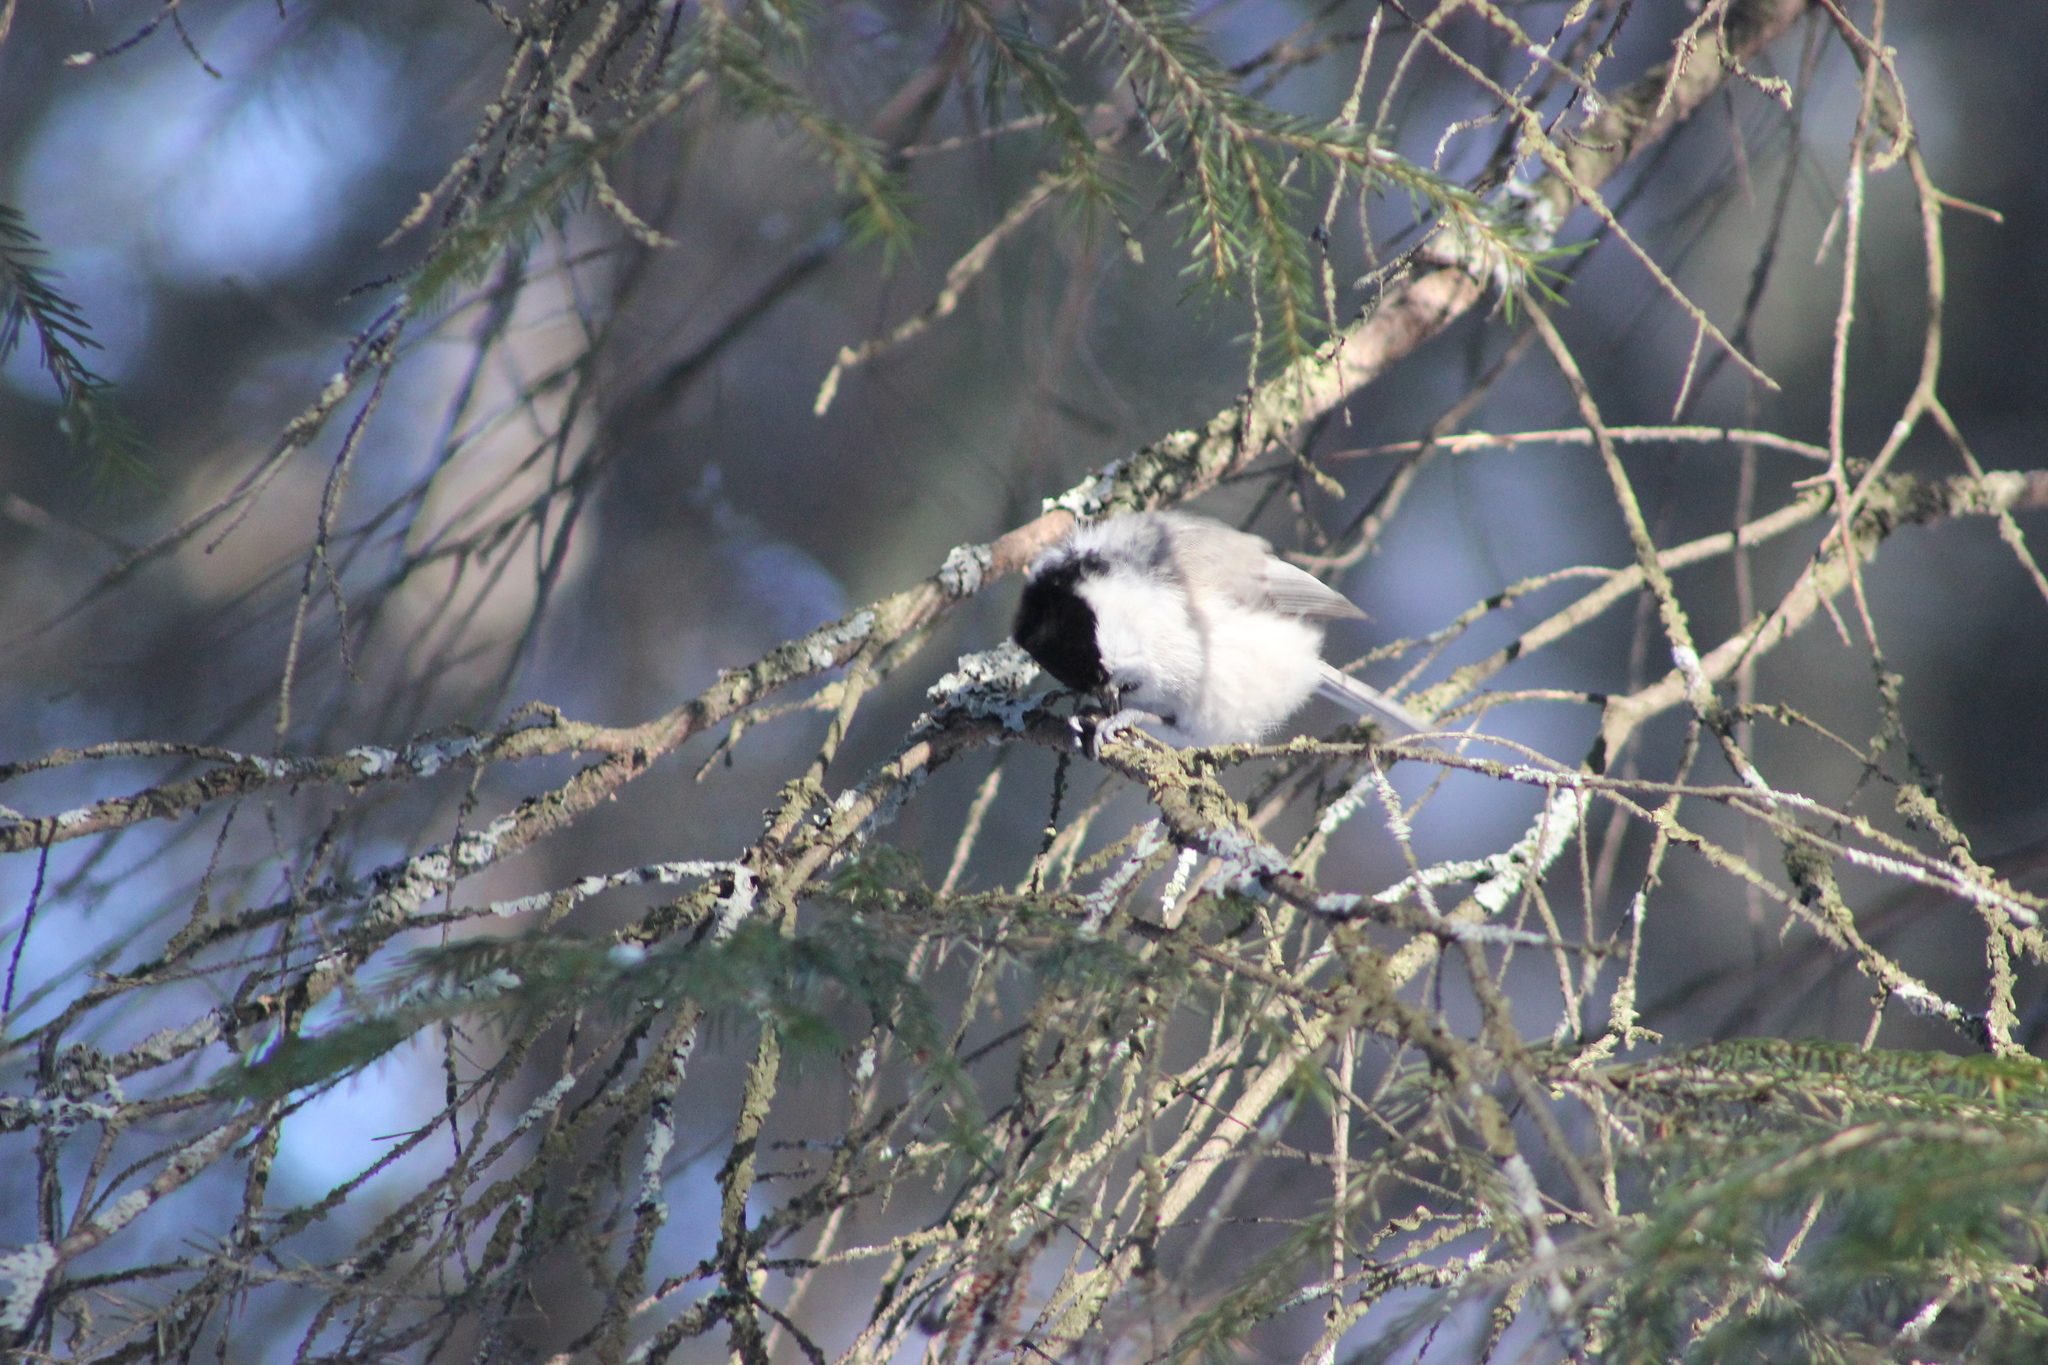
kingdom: Animalia
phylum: Chordata
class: Aves
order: Passeriformes
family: Paridae
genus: Poecile
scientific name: Poecile montanus
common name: Willow tit
